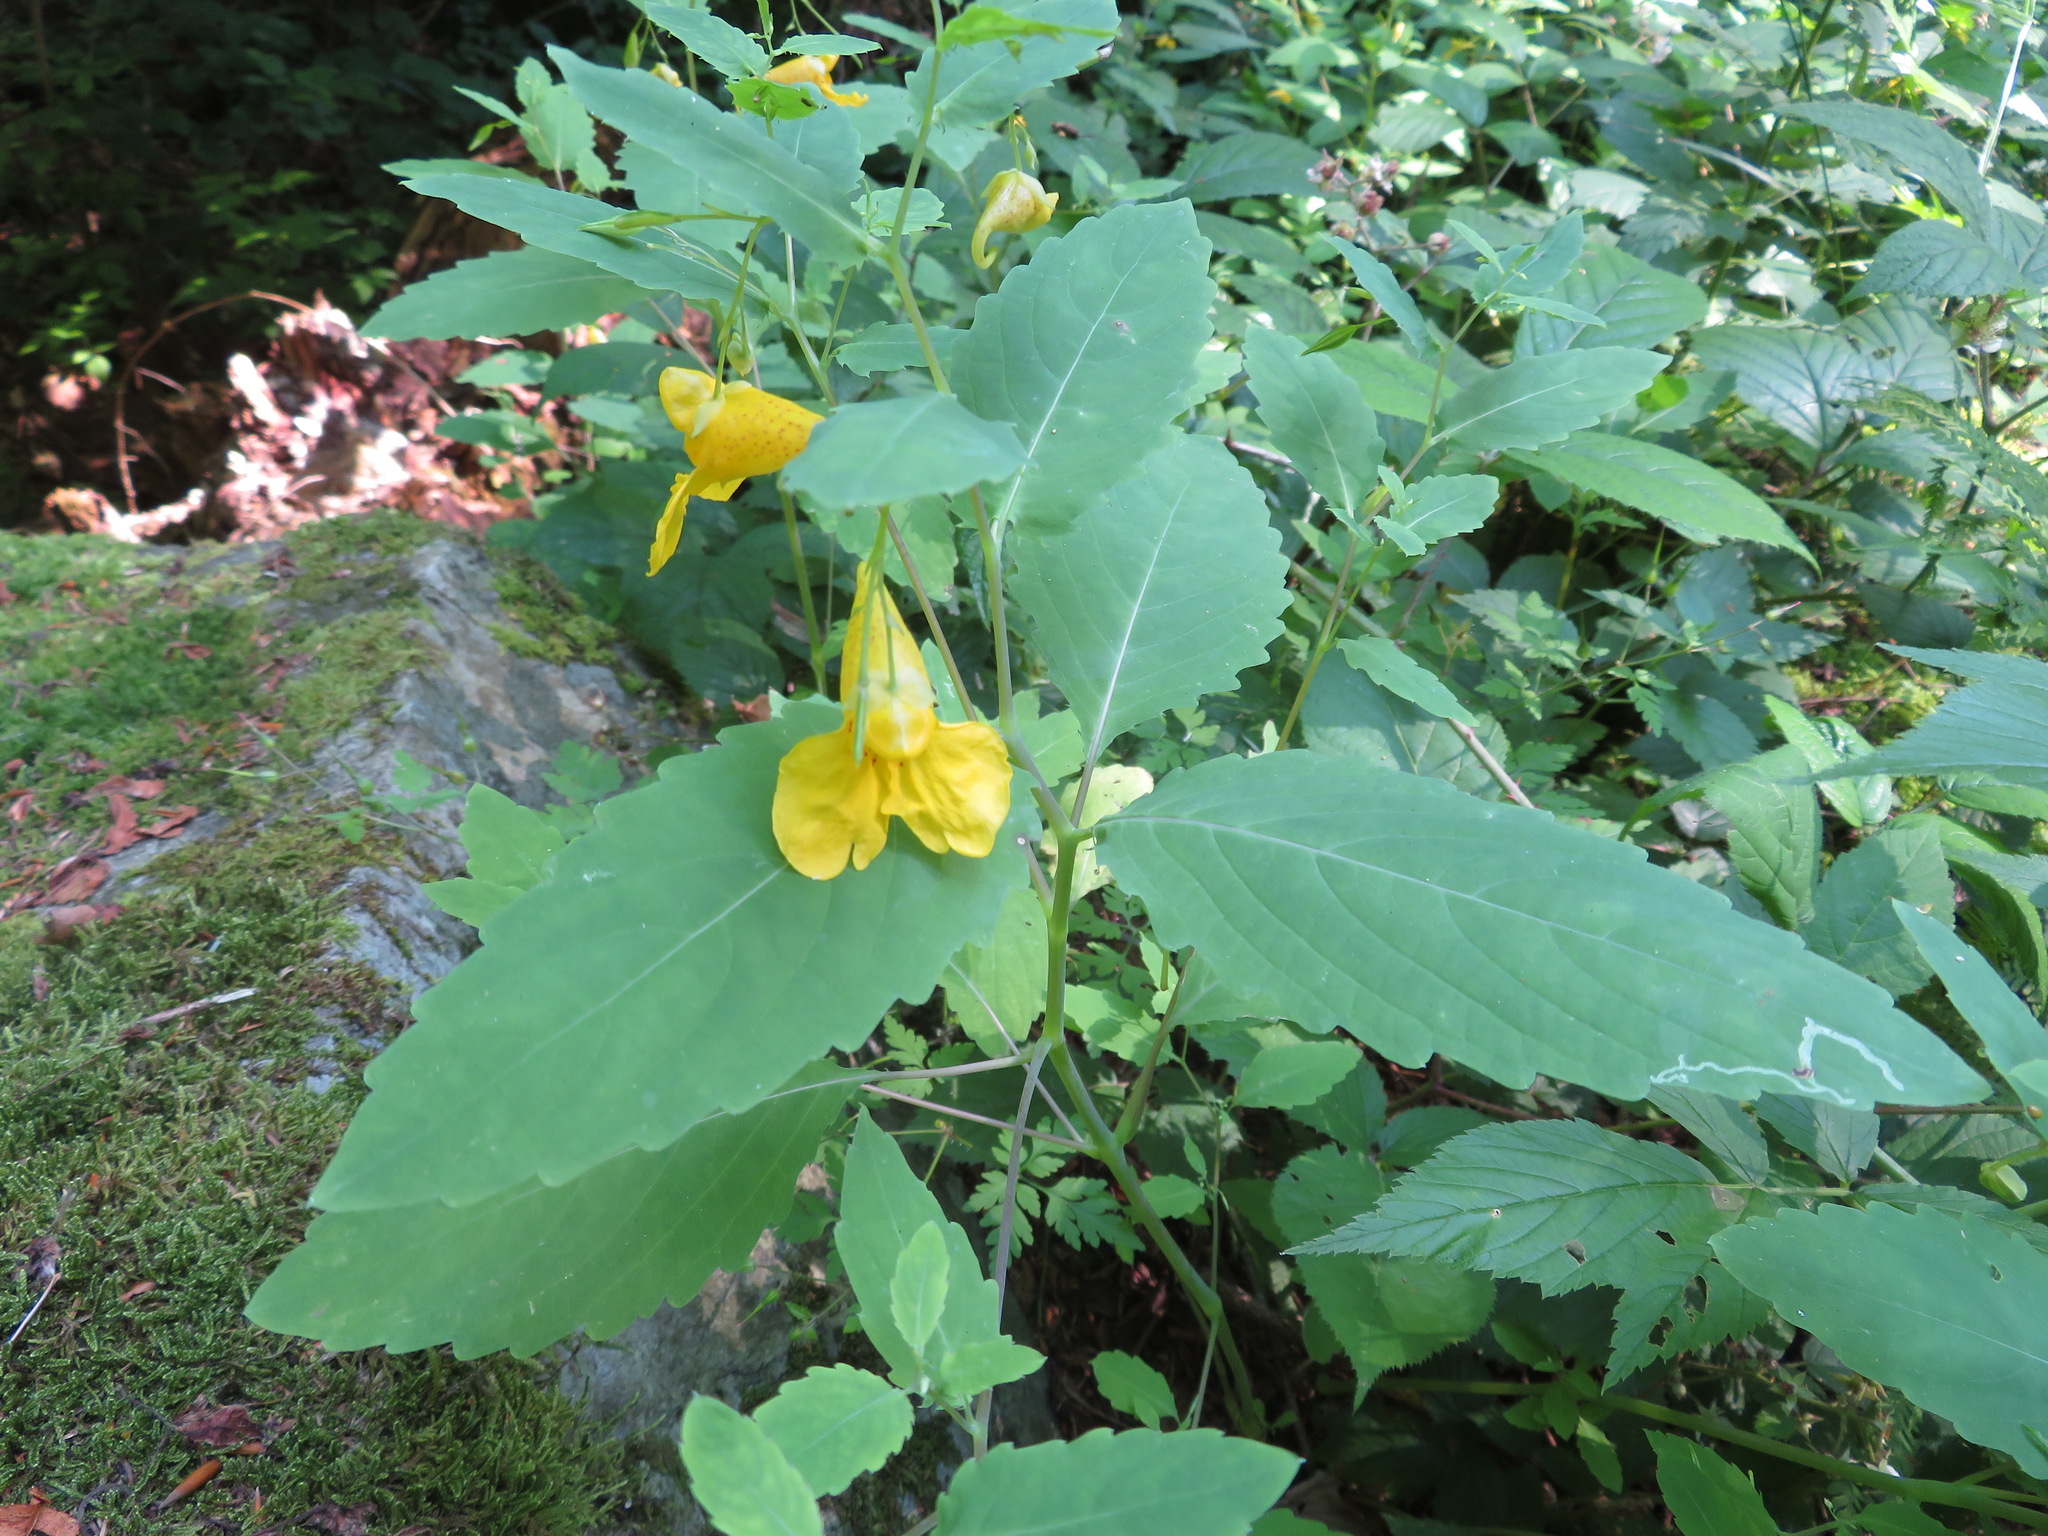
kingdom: Plantae
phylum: Tracheophyta
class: Magnoliopsida
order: Ericales
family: Balsaminaceae
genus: Impatiens
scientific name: Impatiens noli-tangere
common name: Touch-me-not balsam
